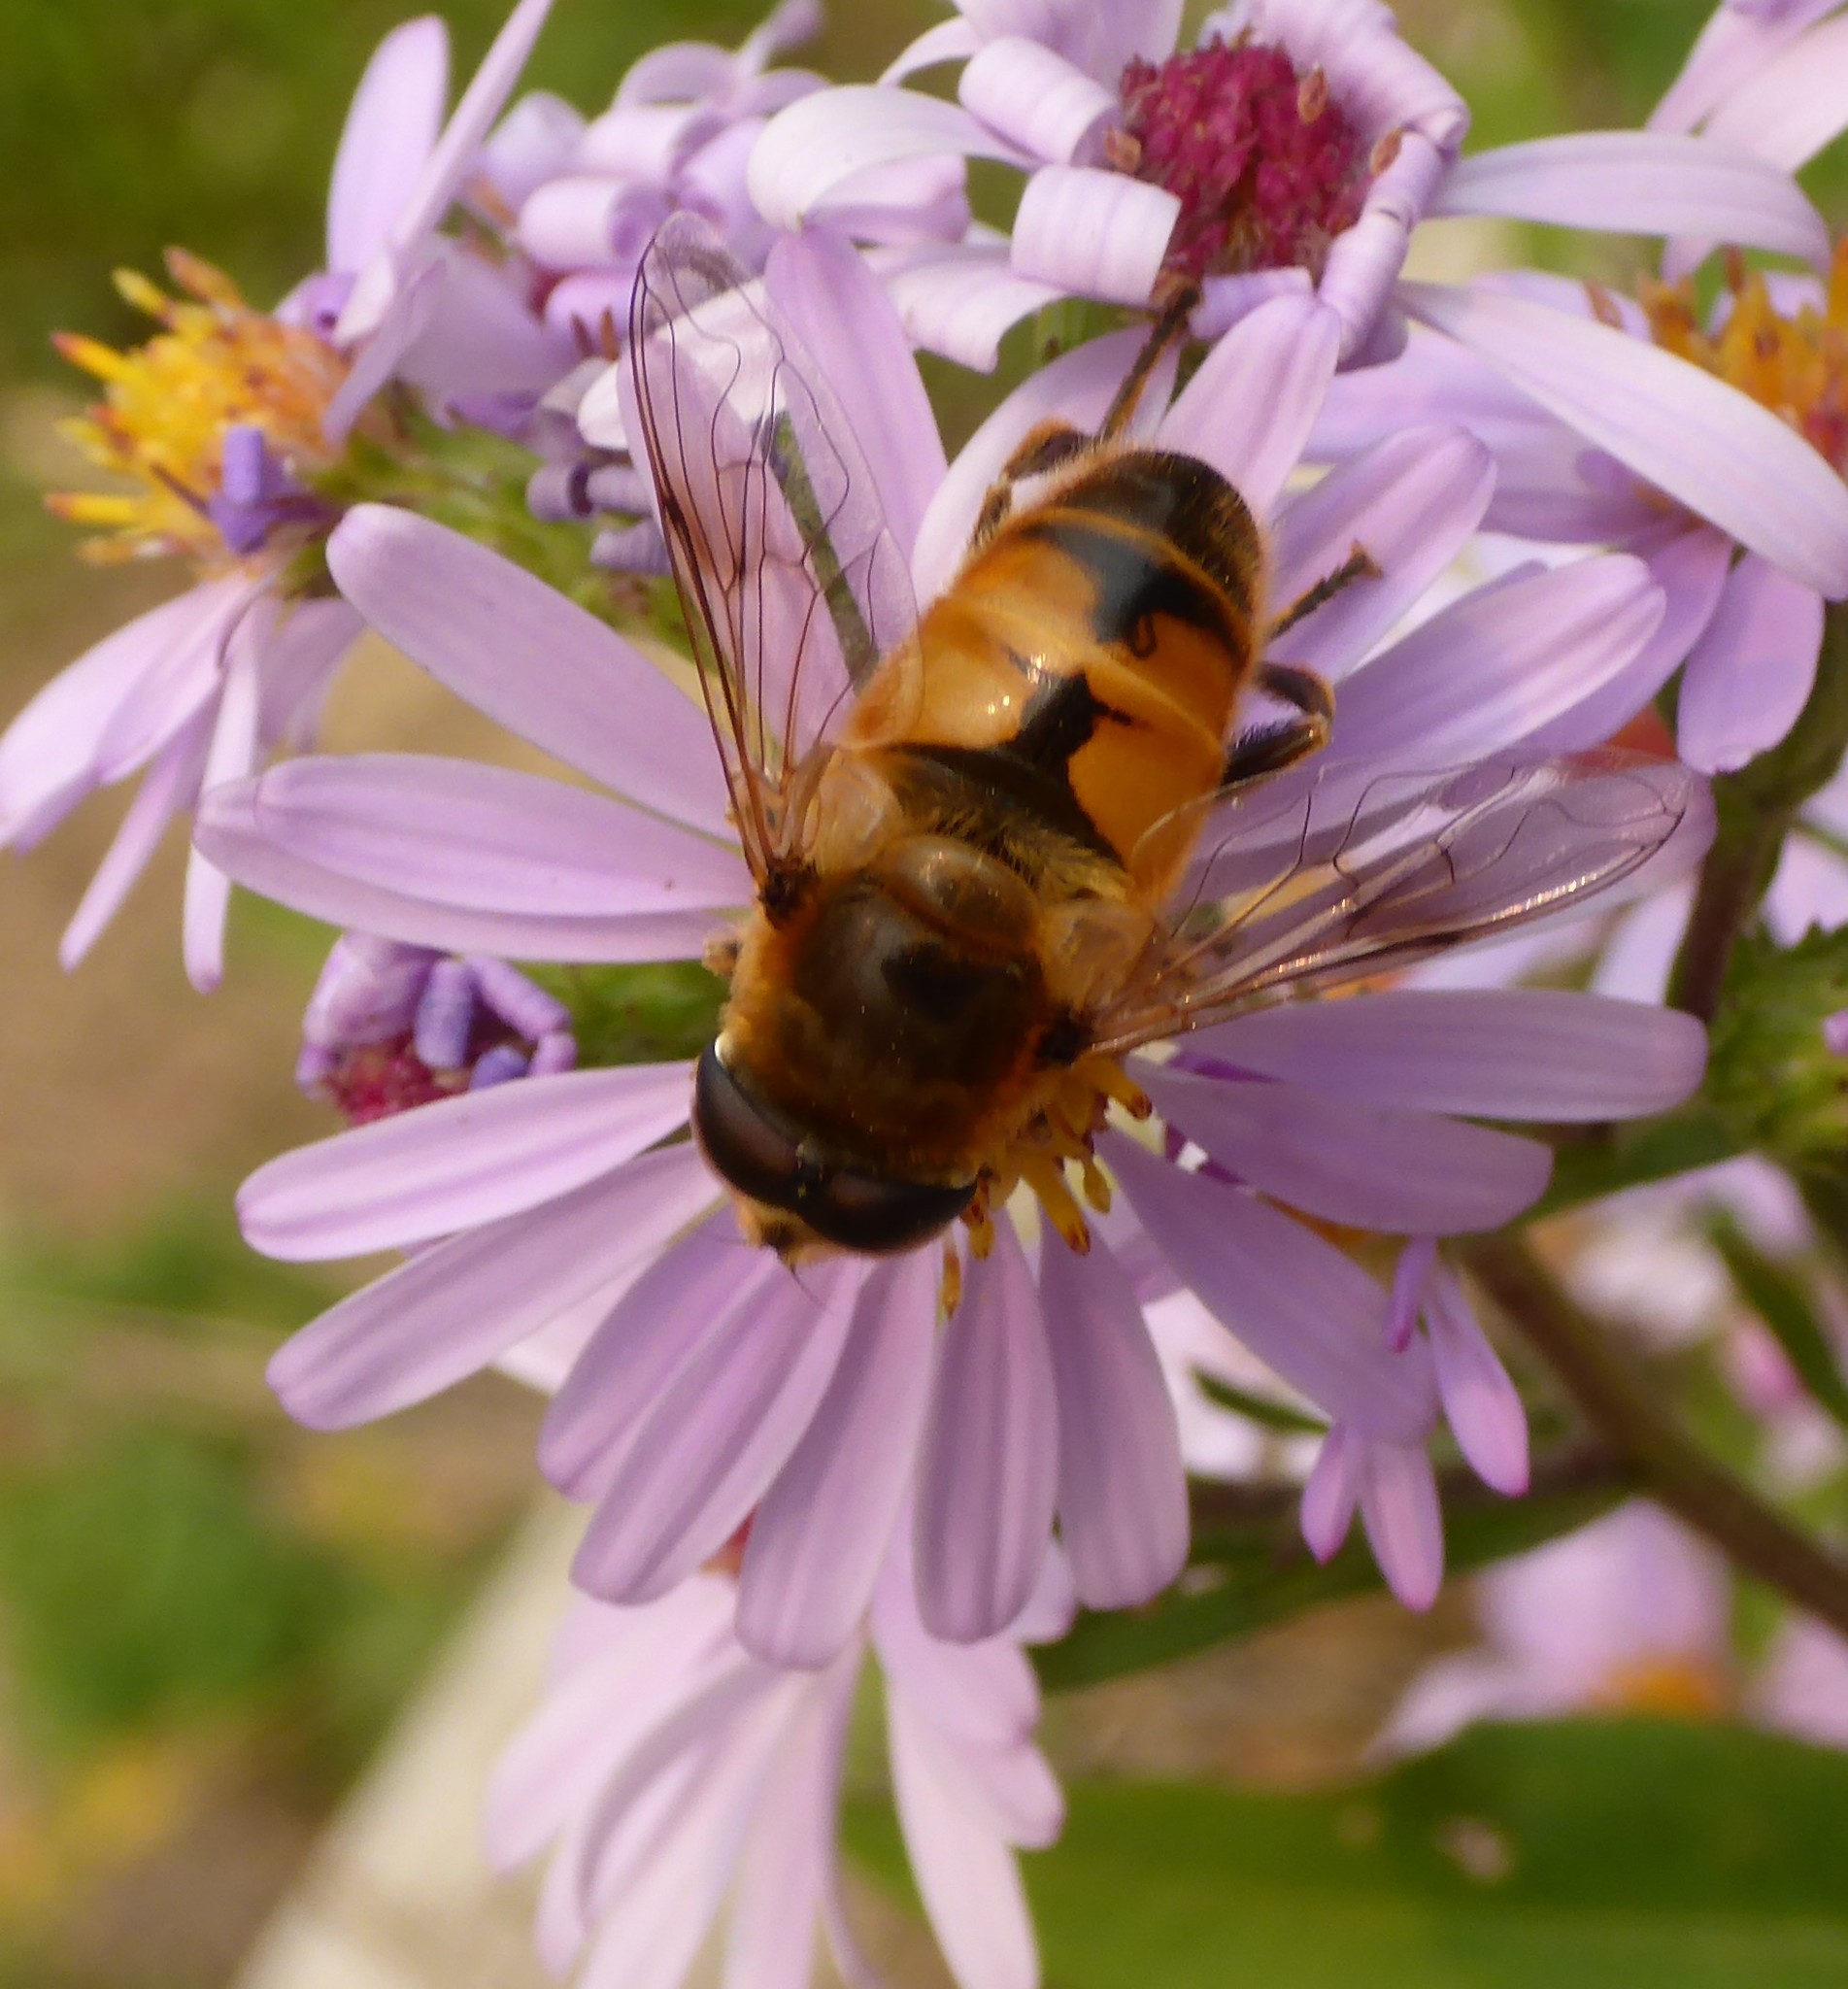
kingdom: Animalia
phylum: Arthropoda
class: Insecta
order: Diptera
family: Syrphidae
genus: Eristalis
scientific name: Eristalis tenax
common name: Drone fly
